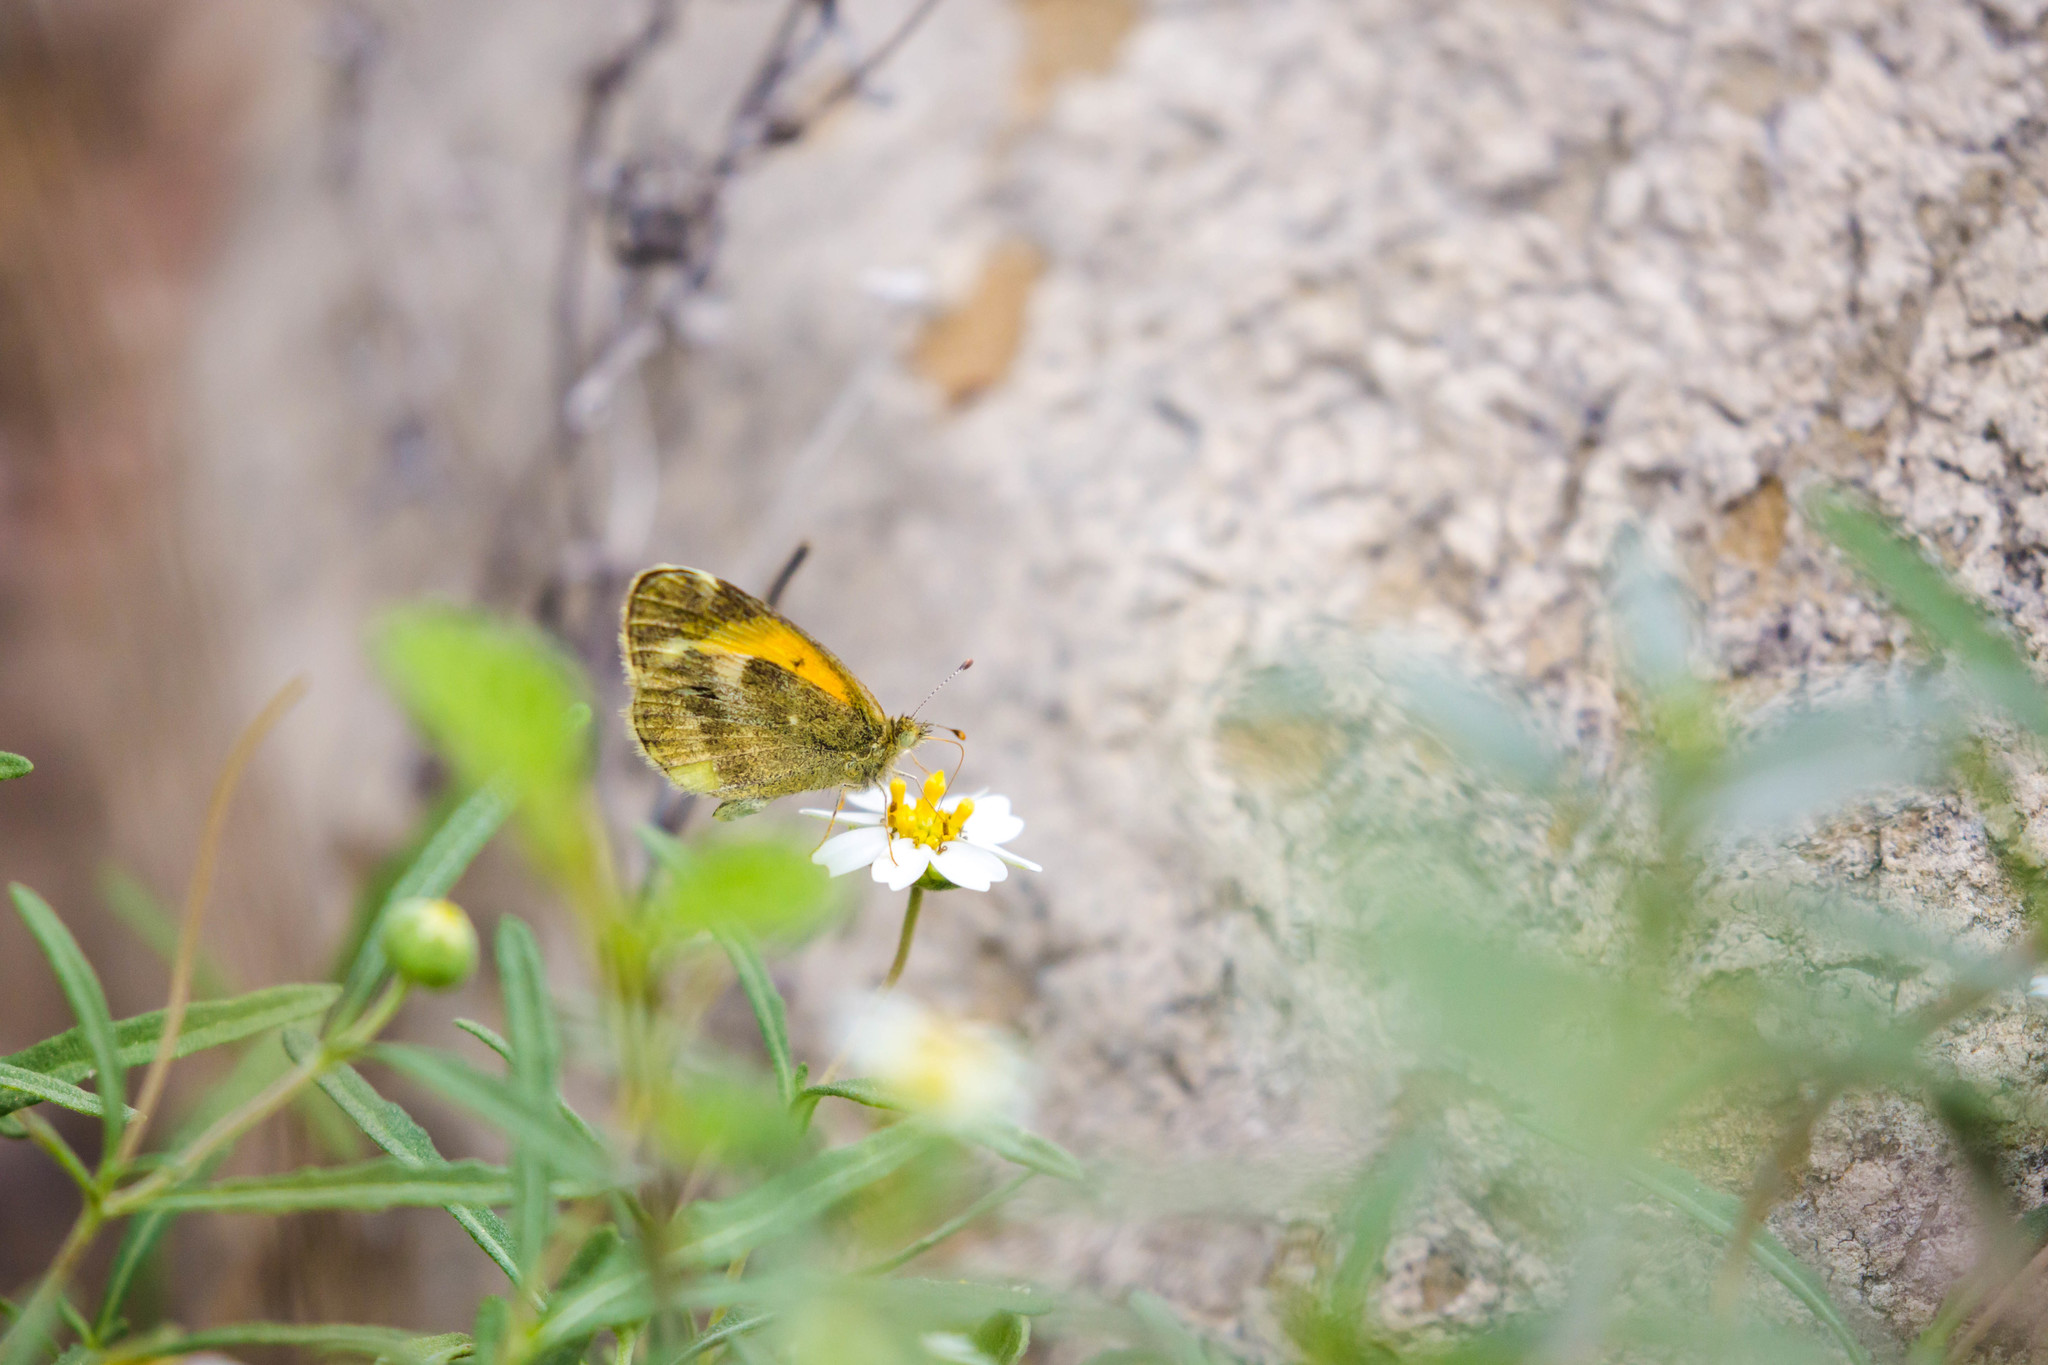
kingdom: Animalia
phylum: Arthropoda
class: Insecta
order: Lepidoptera
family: Pieridae
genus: Nathalis
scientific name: Nathalis iole
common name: Dainty sulphur
